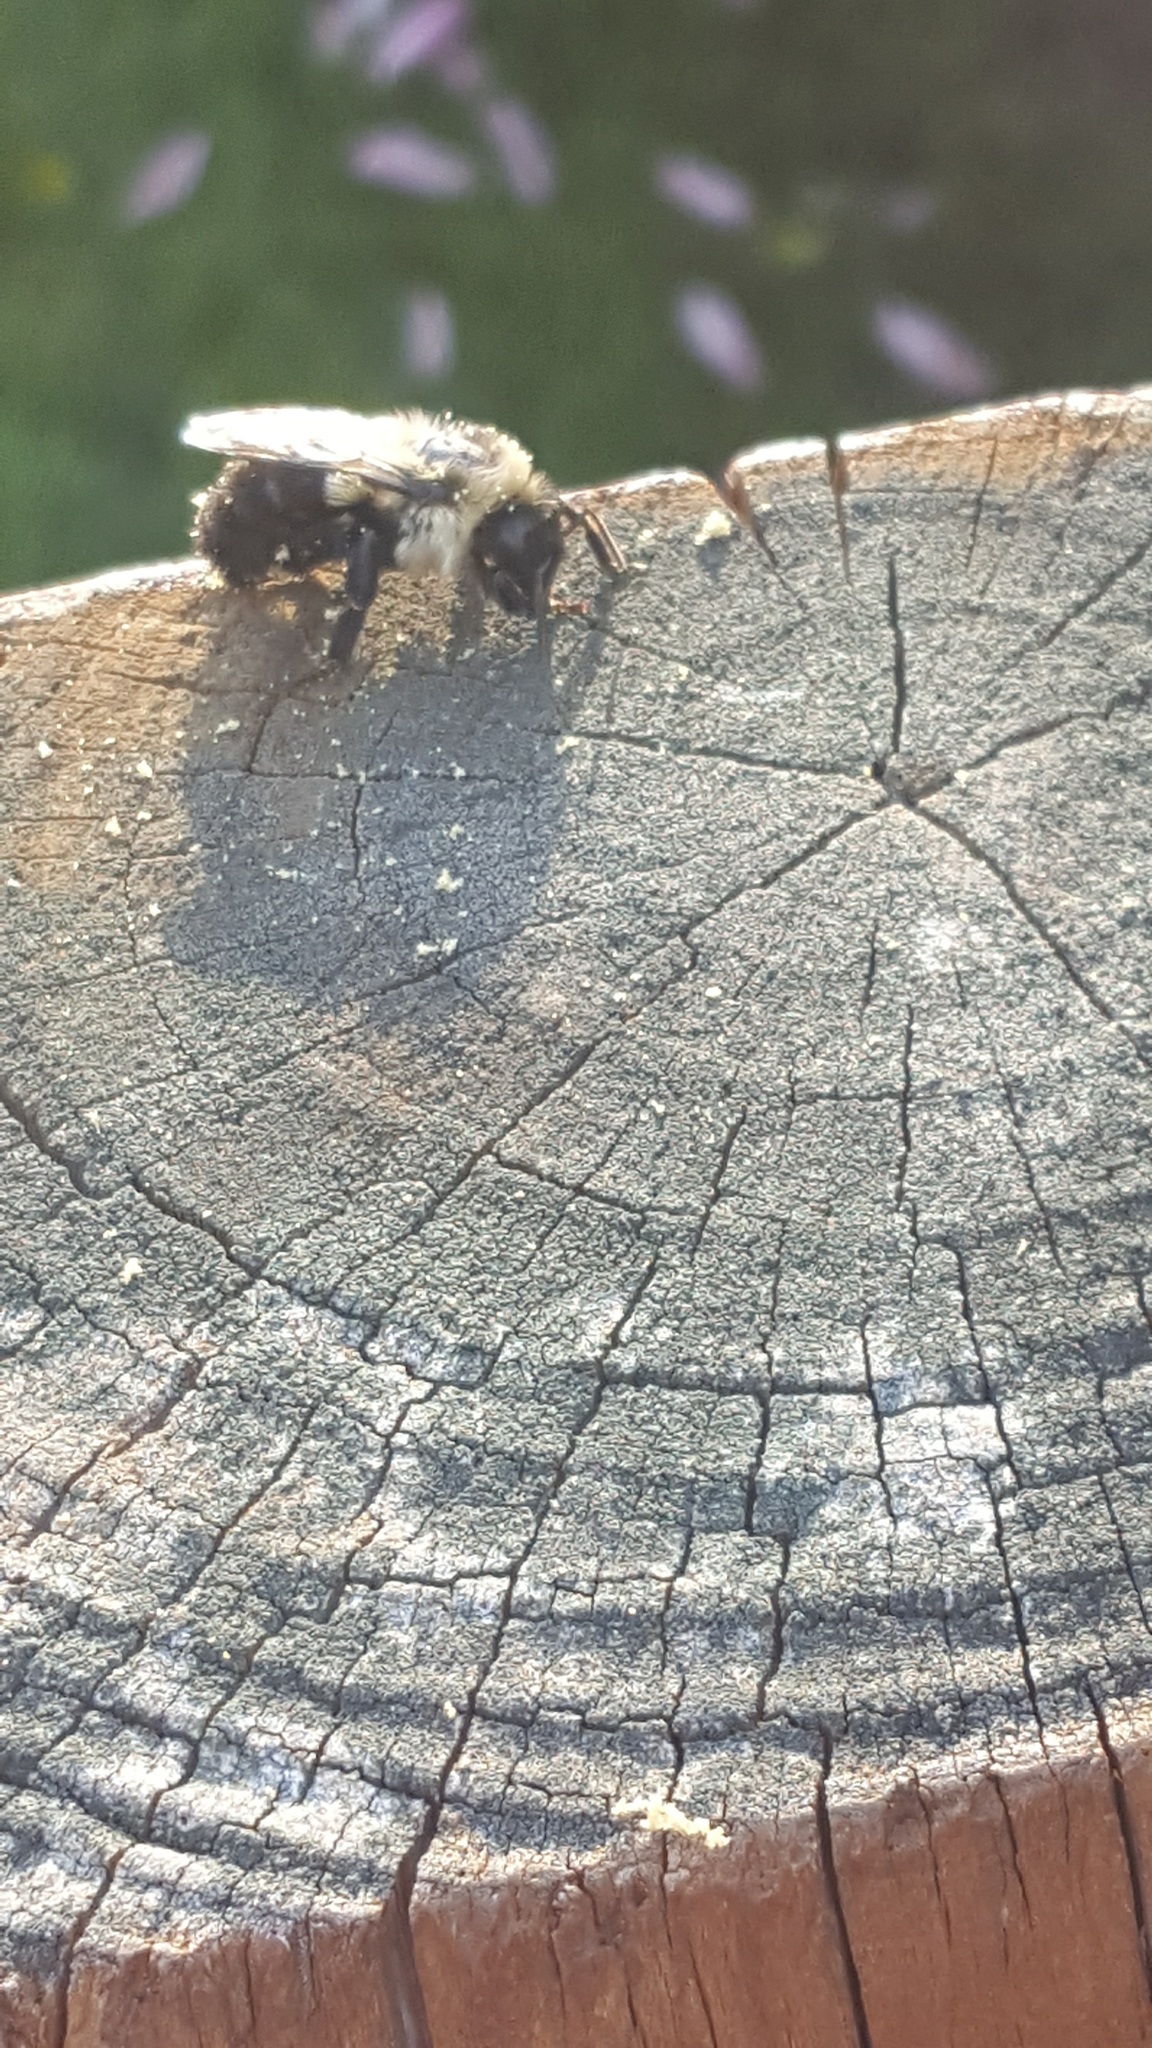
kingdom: Animalia
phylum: Arthropoda
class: Insecta
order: Hymenoptera
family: Apidae
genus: Bombus
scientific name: Bombus impatiens
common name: Common eastern bumble bee
